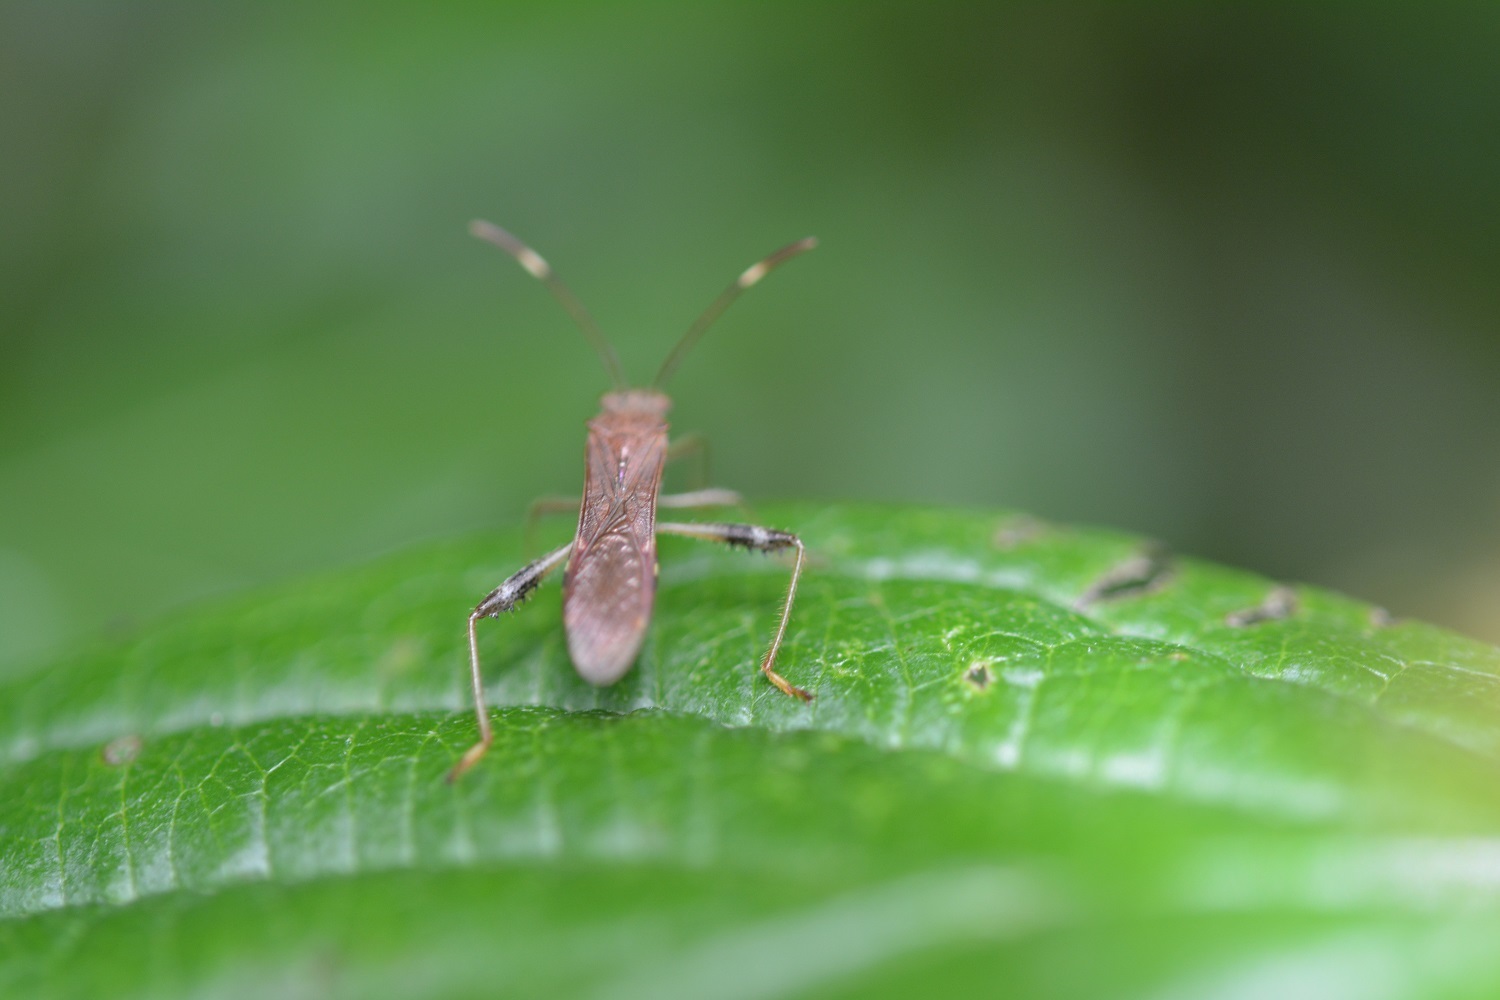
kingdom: Animalia
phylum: Arthropoda
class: Insecta
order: Hemiptera
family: Alydidae
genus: Burtinus
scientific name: Burtinus notatipennis
